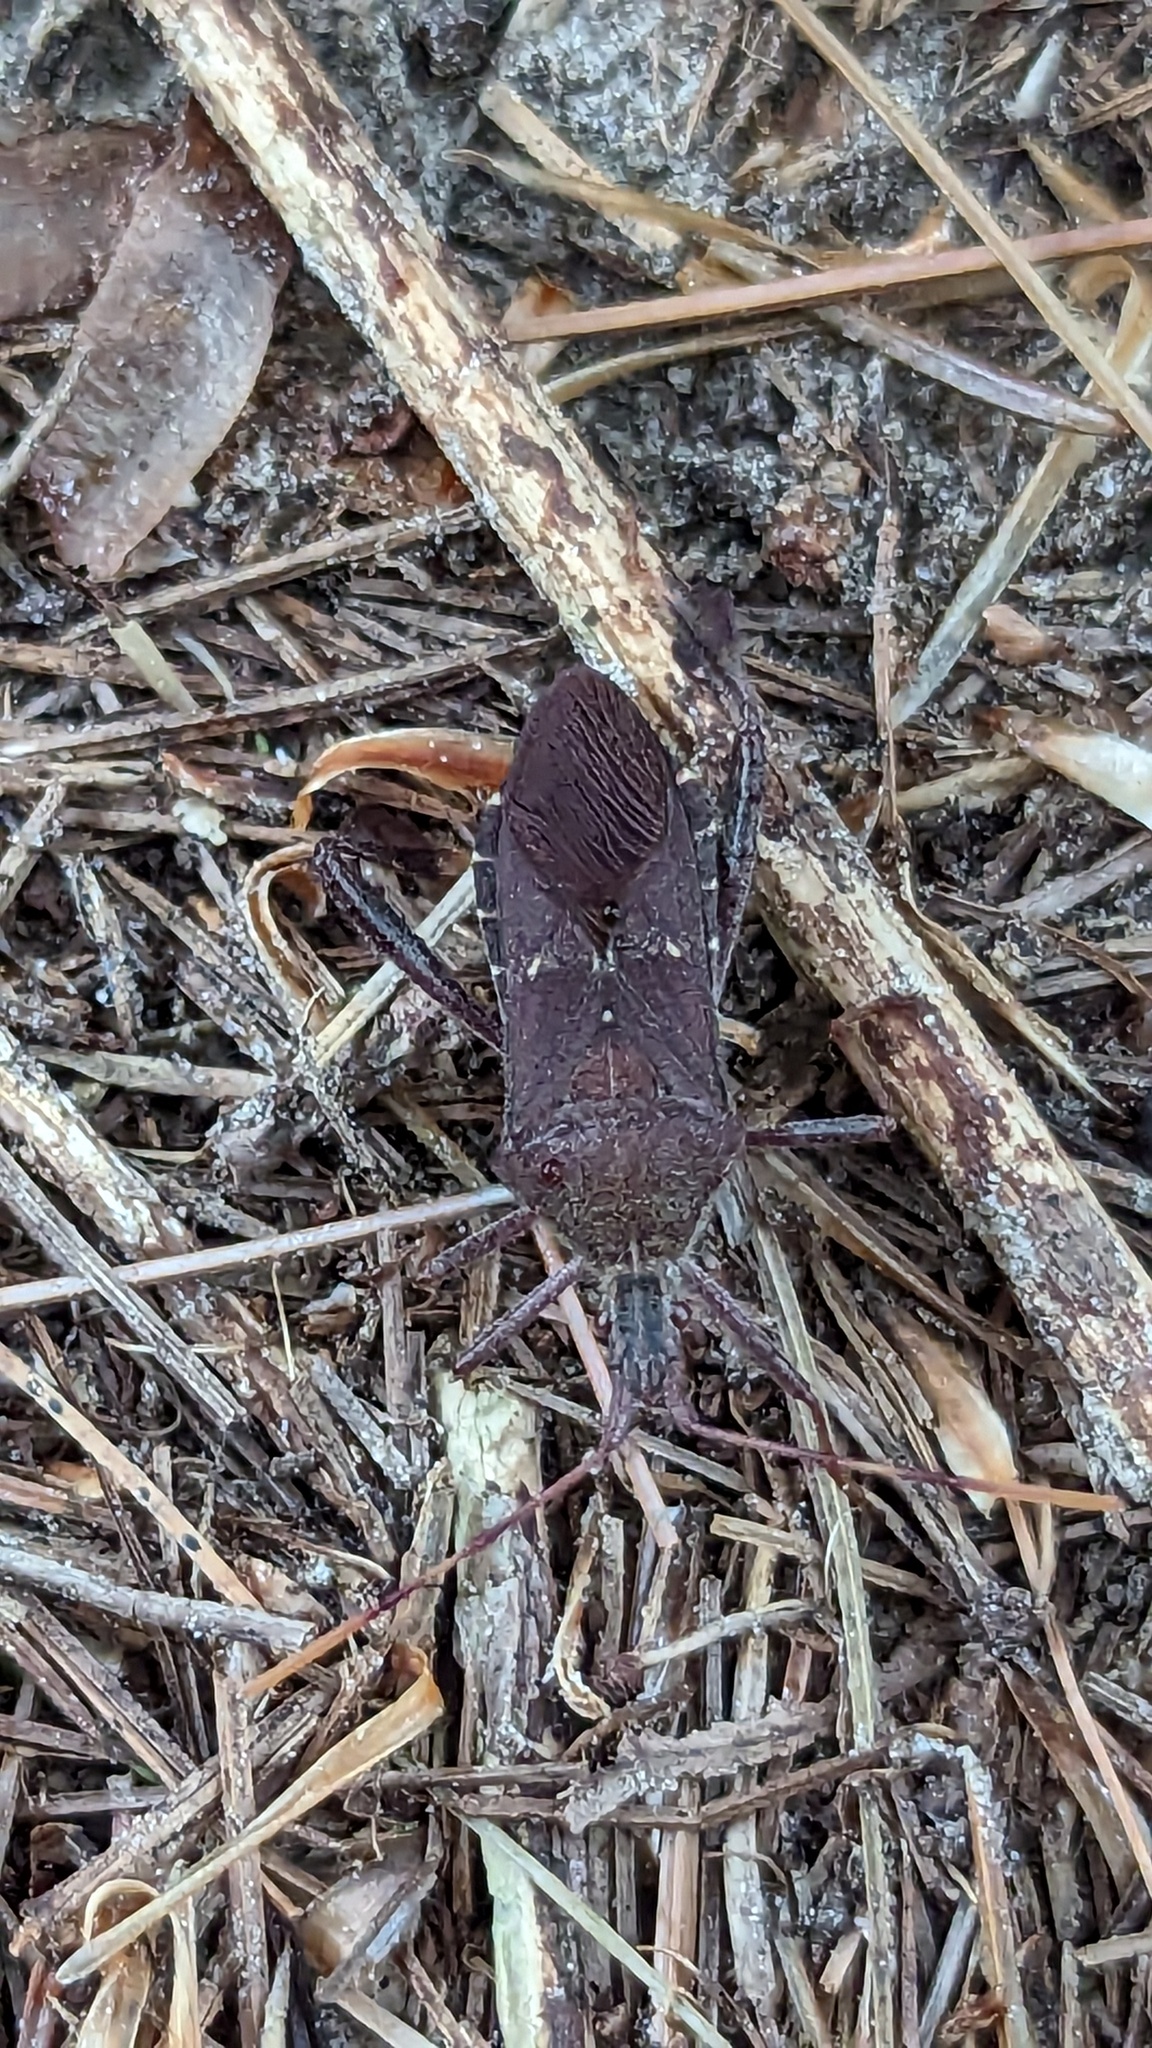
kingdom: Animalia
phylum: Arthropoda
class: Insecta
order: Hemiptera
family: Coreidae
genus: Leptoglossus
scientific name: Leptoglossus oppositus
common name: Northern leaf-footed bug
